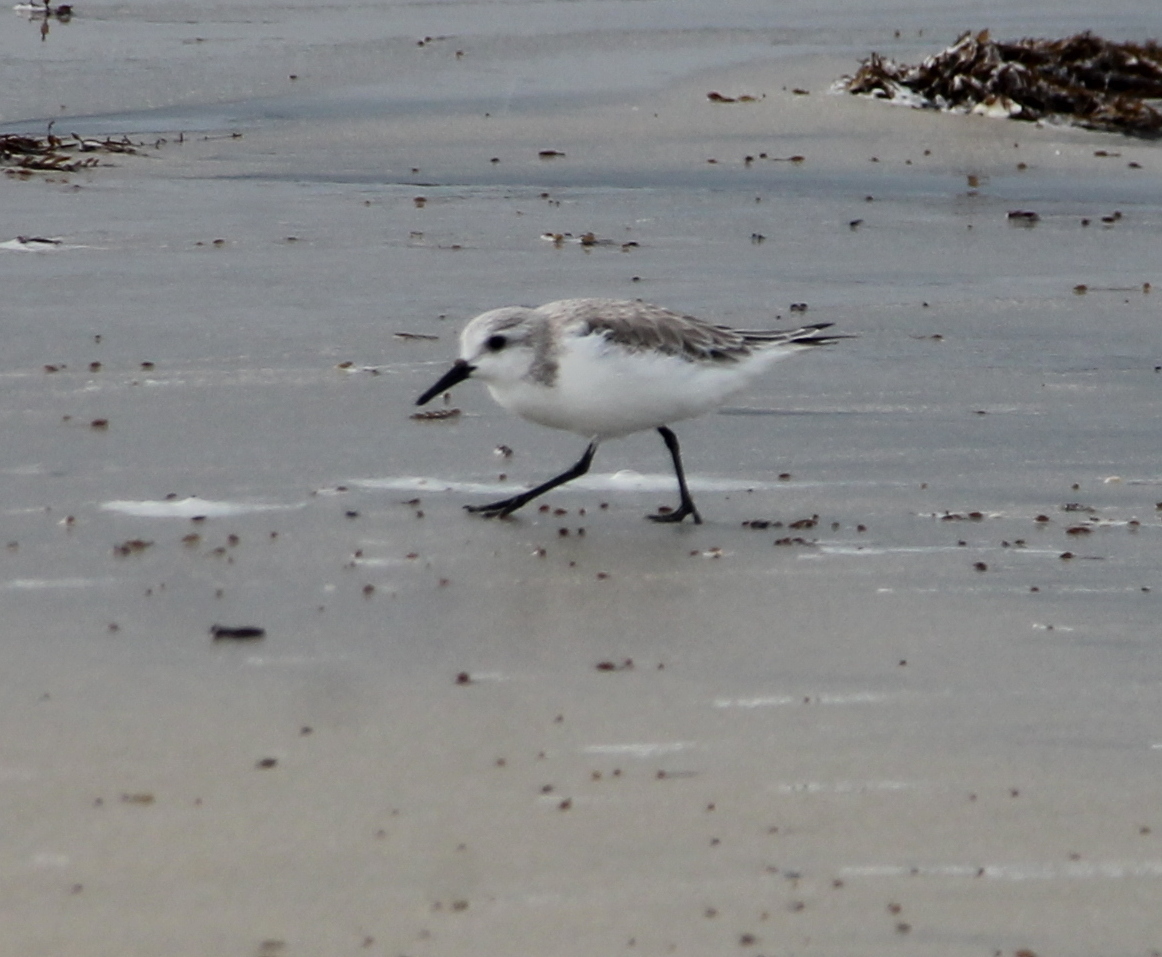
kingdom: Animalia
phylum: Chordata
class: Aves
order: Charadriiformes
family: Scolopacidae
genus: Calidris
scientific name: Calidris alba
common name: Sanderling
